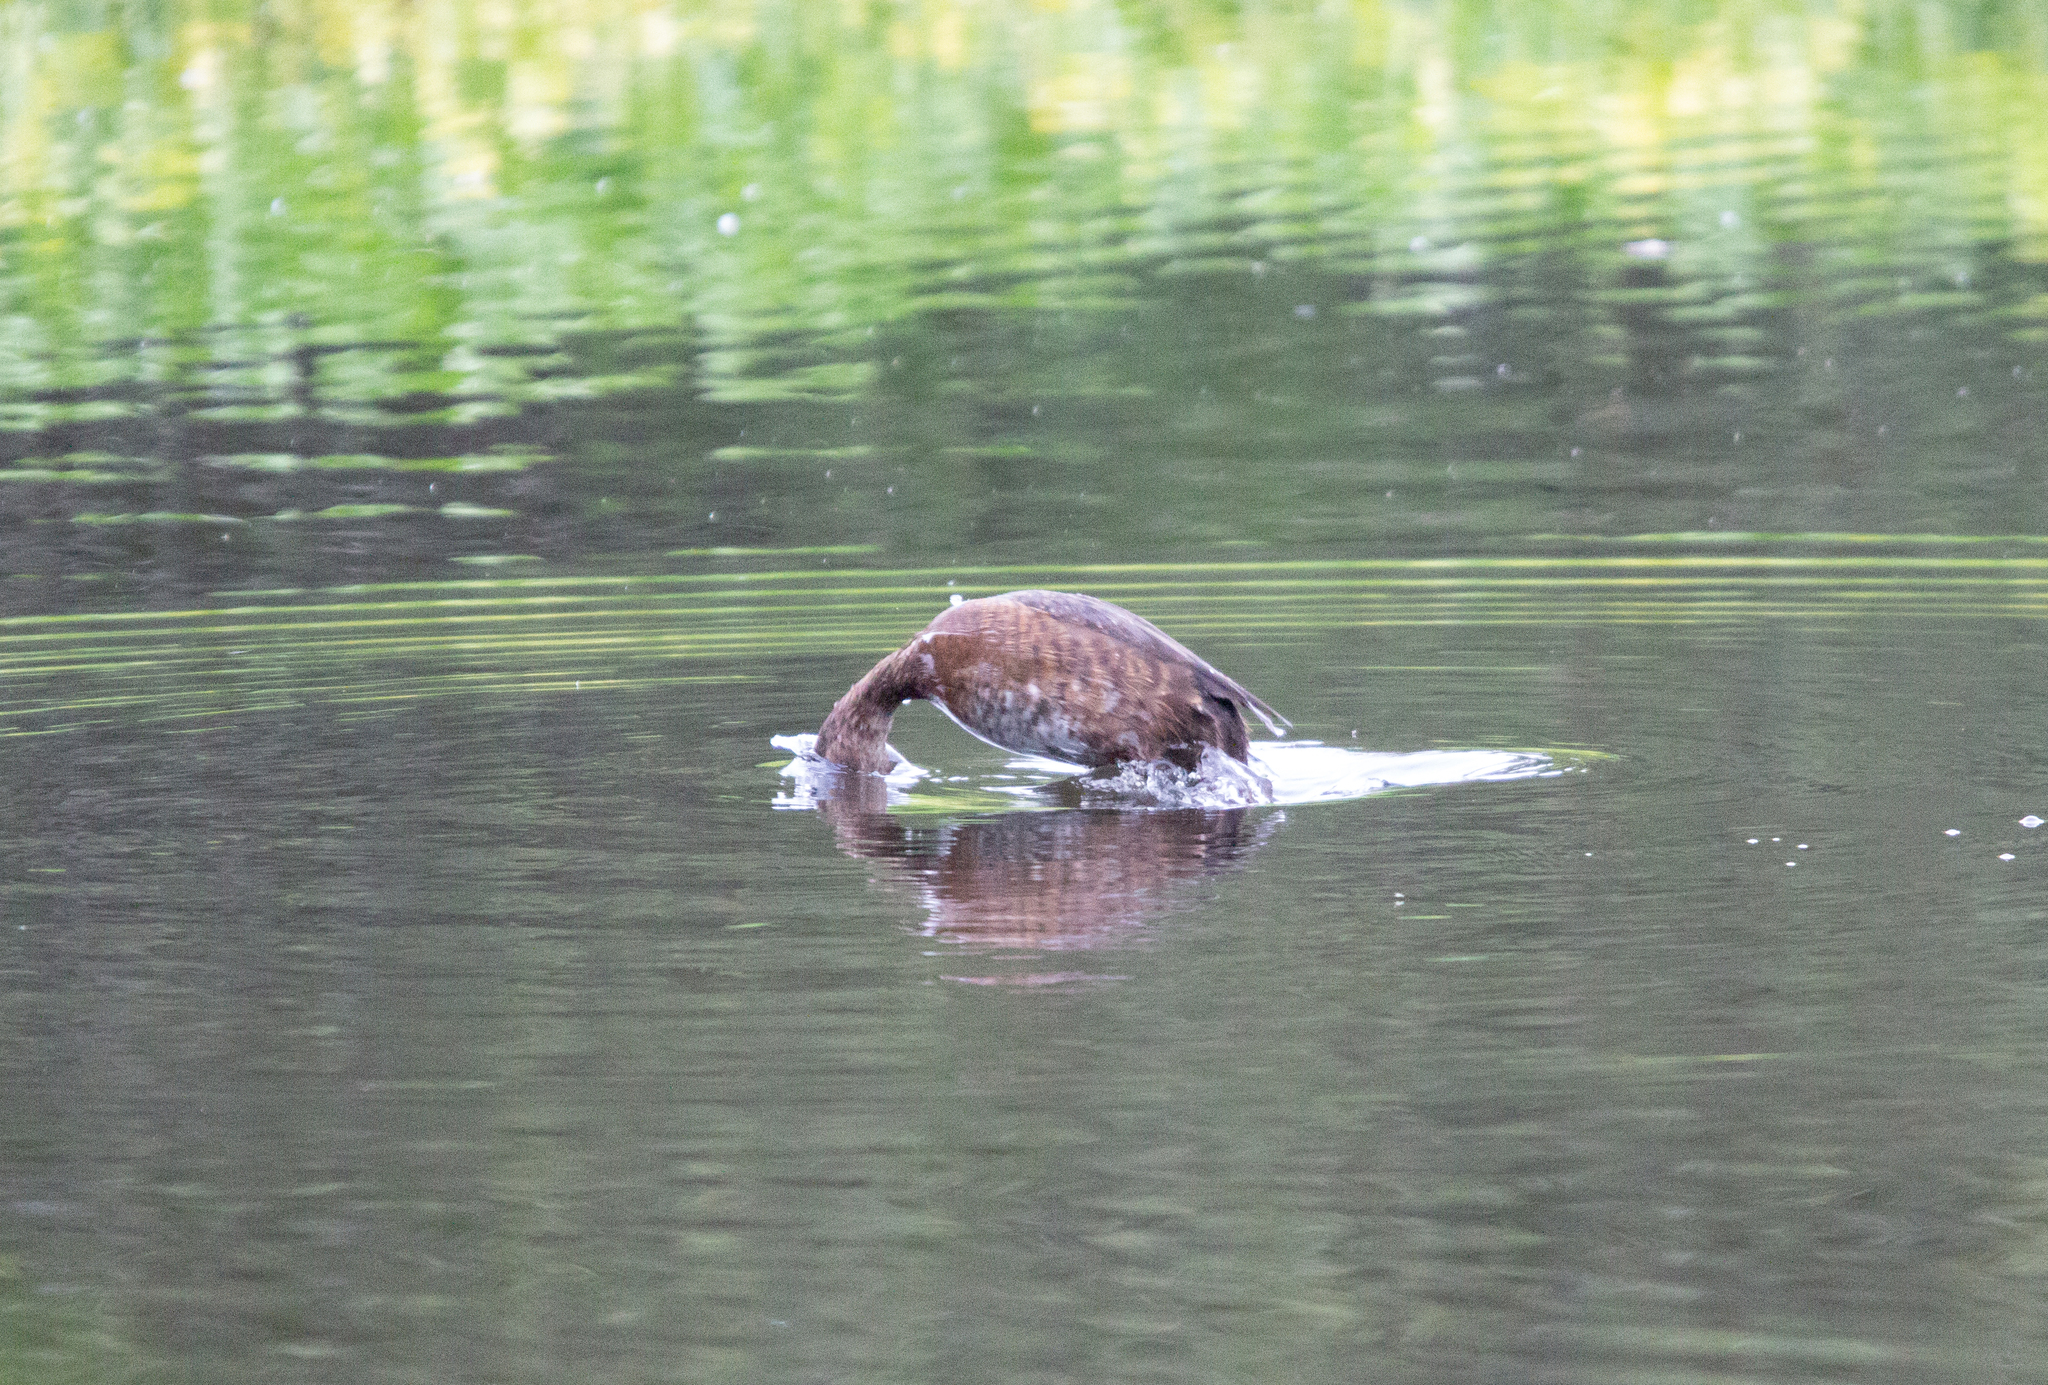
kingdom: Animalia
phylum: Chordata
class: Aves
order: Anseriformes
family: Anatidae
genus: Aythya
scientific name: Aythya fuligula
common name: Tufted duck
